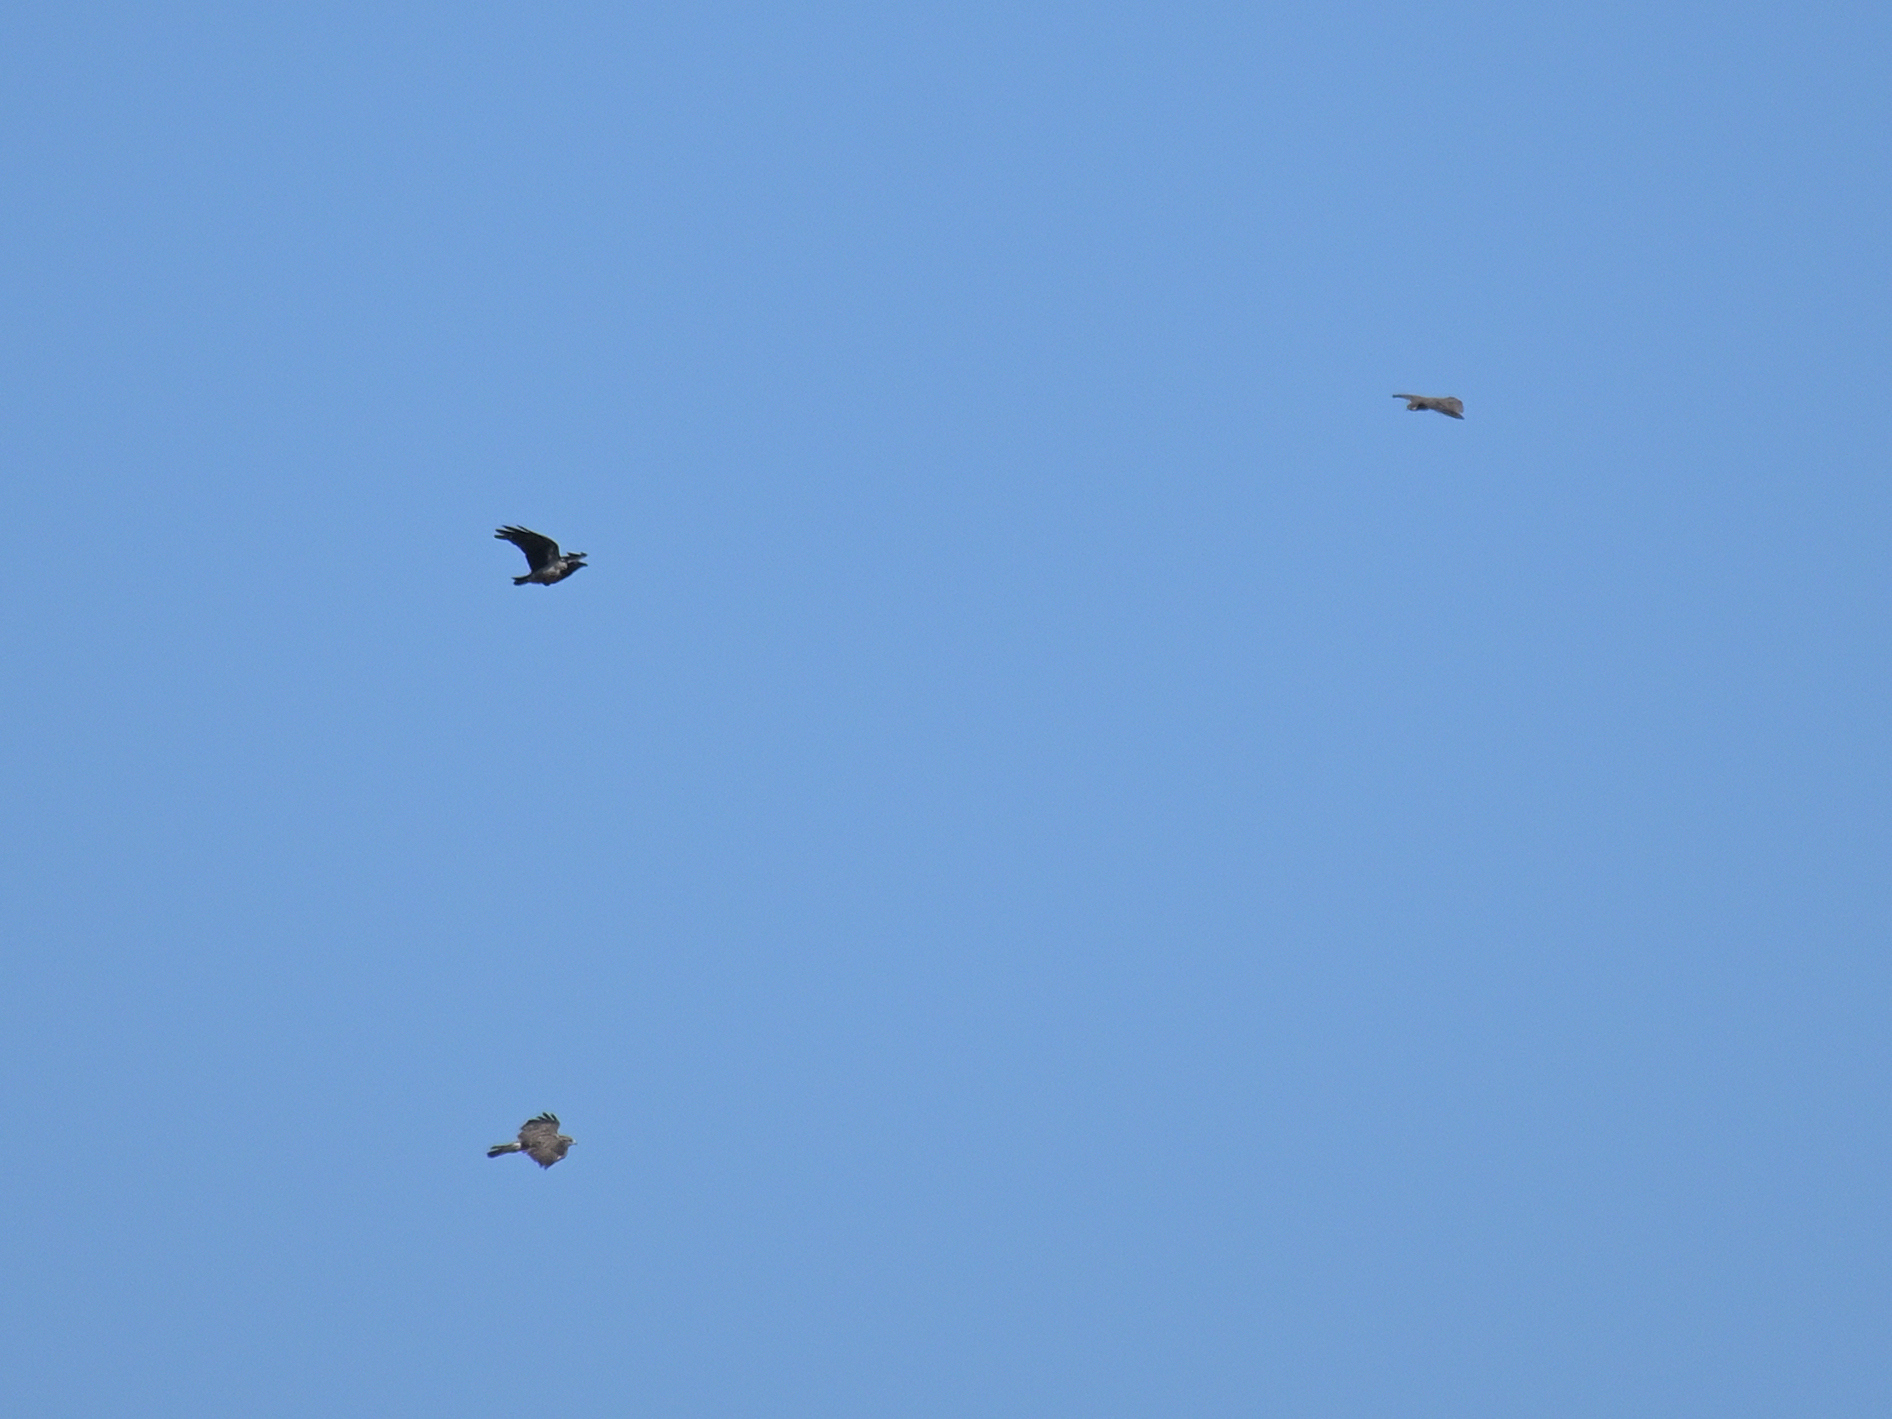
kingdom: Animalia
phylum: Chordata
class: Aves
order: Accipitriformes
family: Accipitridae
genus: Buteo
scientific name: Buteo buteo
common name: Common buzzard
